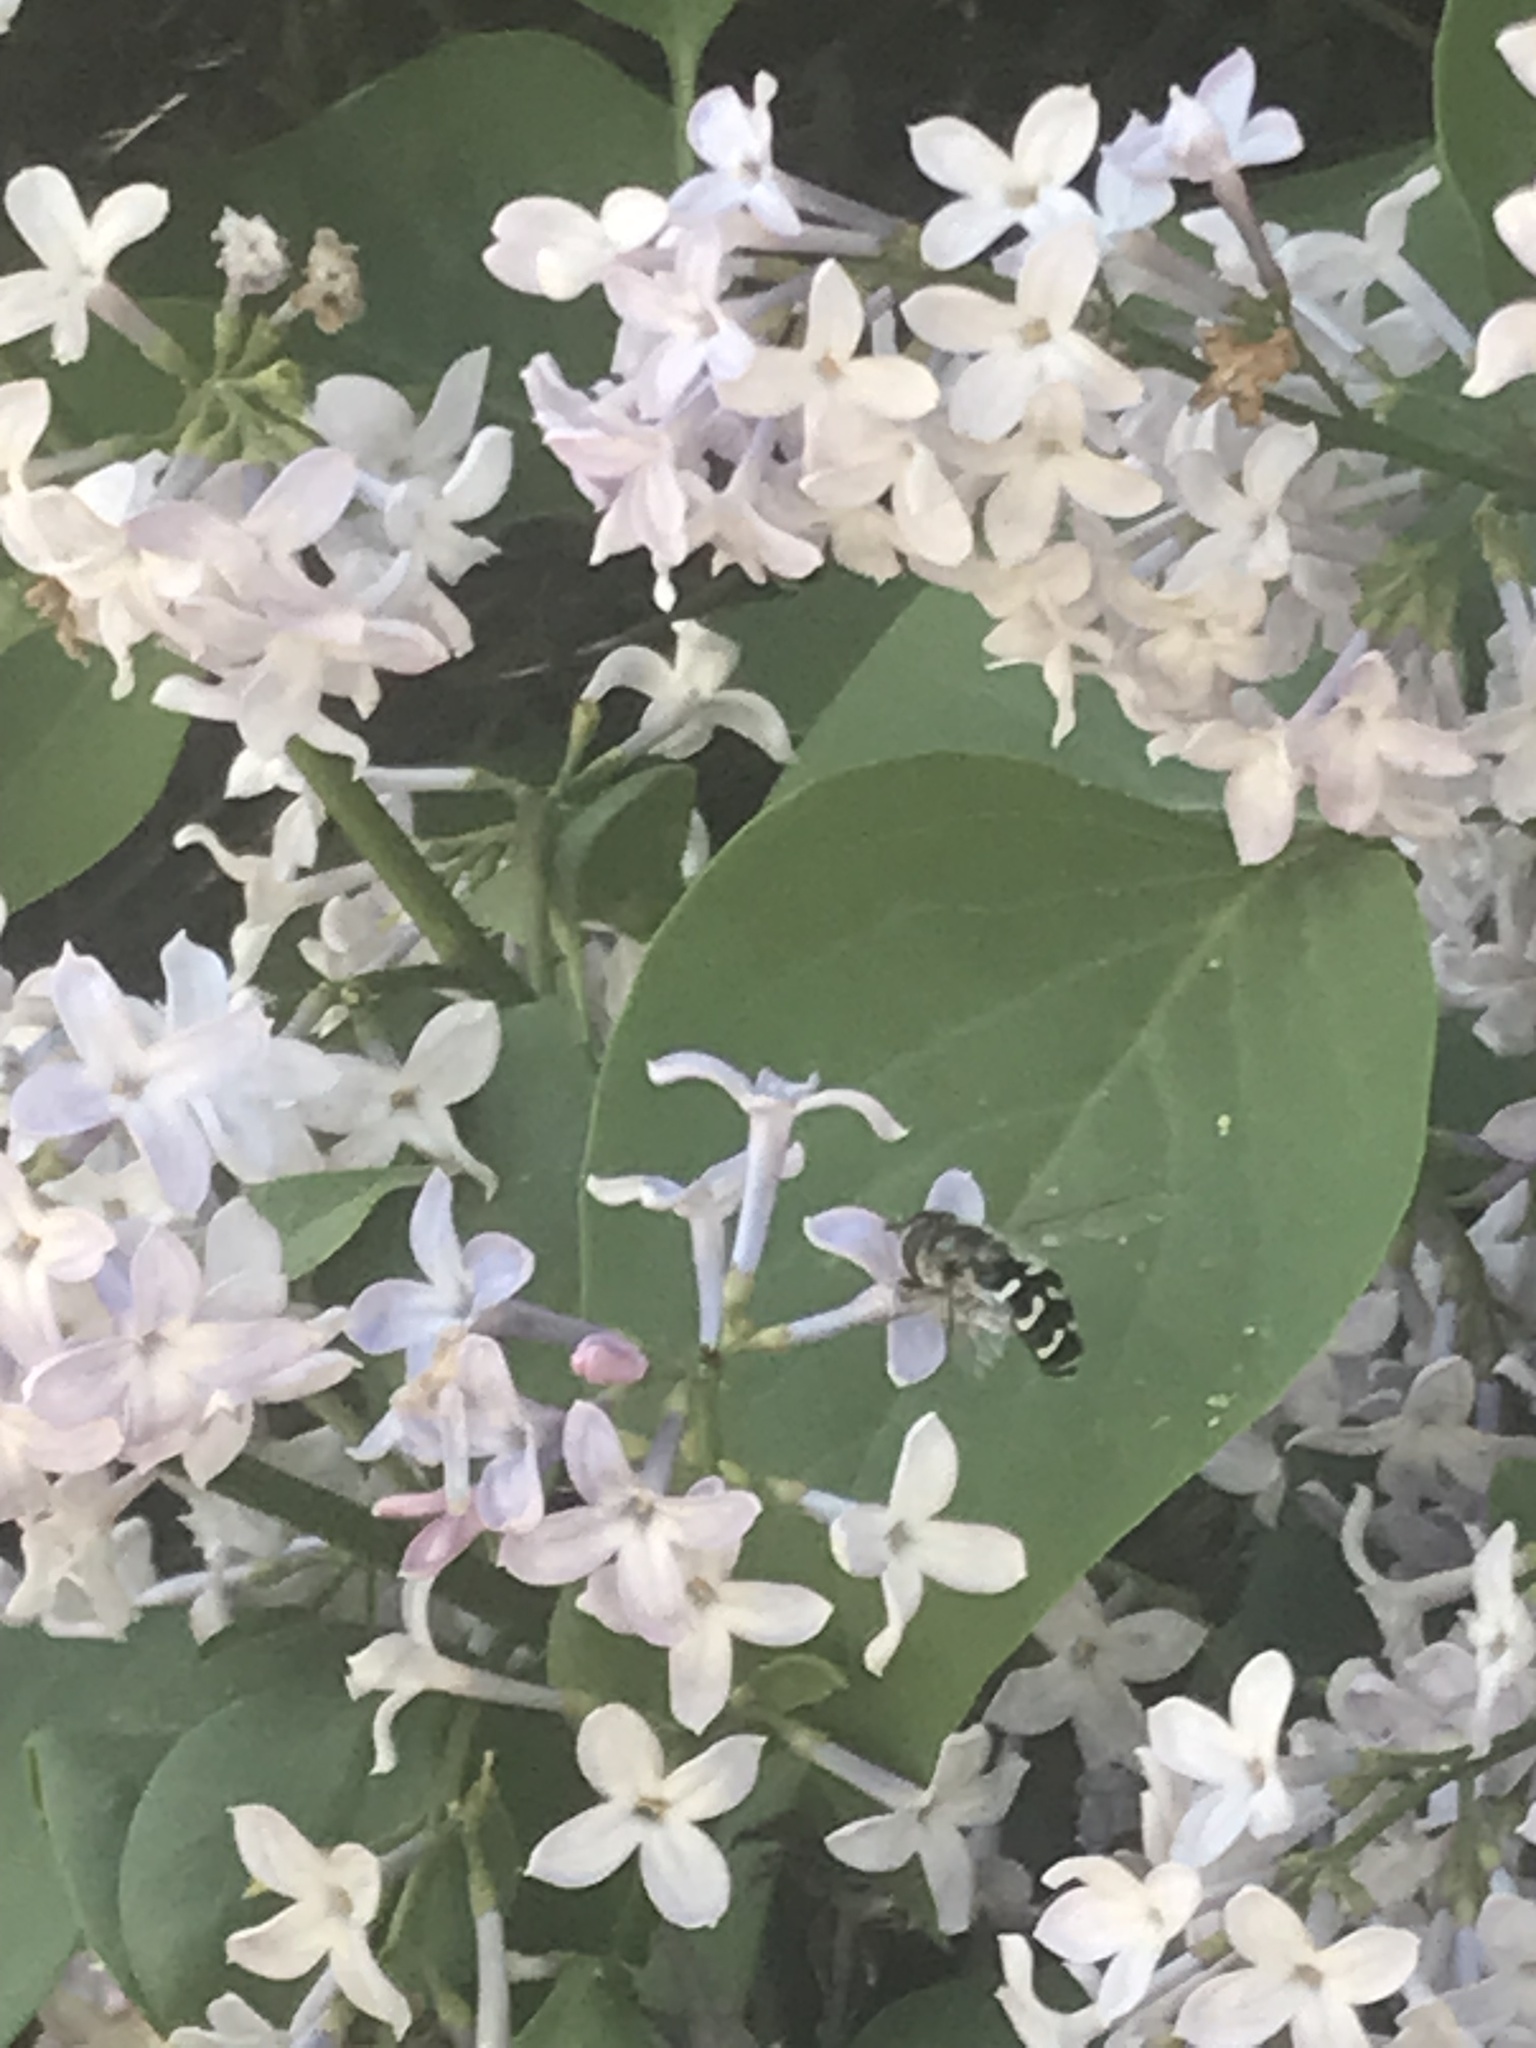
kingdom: Animalia
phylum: Arthropoda
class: Insecta
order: Diptera
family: Syrphidae
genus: Scaeva
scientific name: Scaeva affinis
